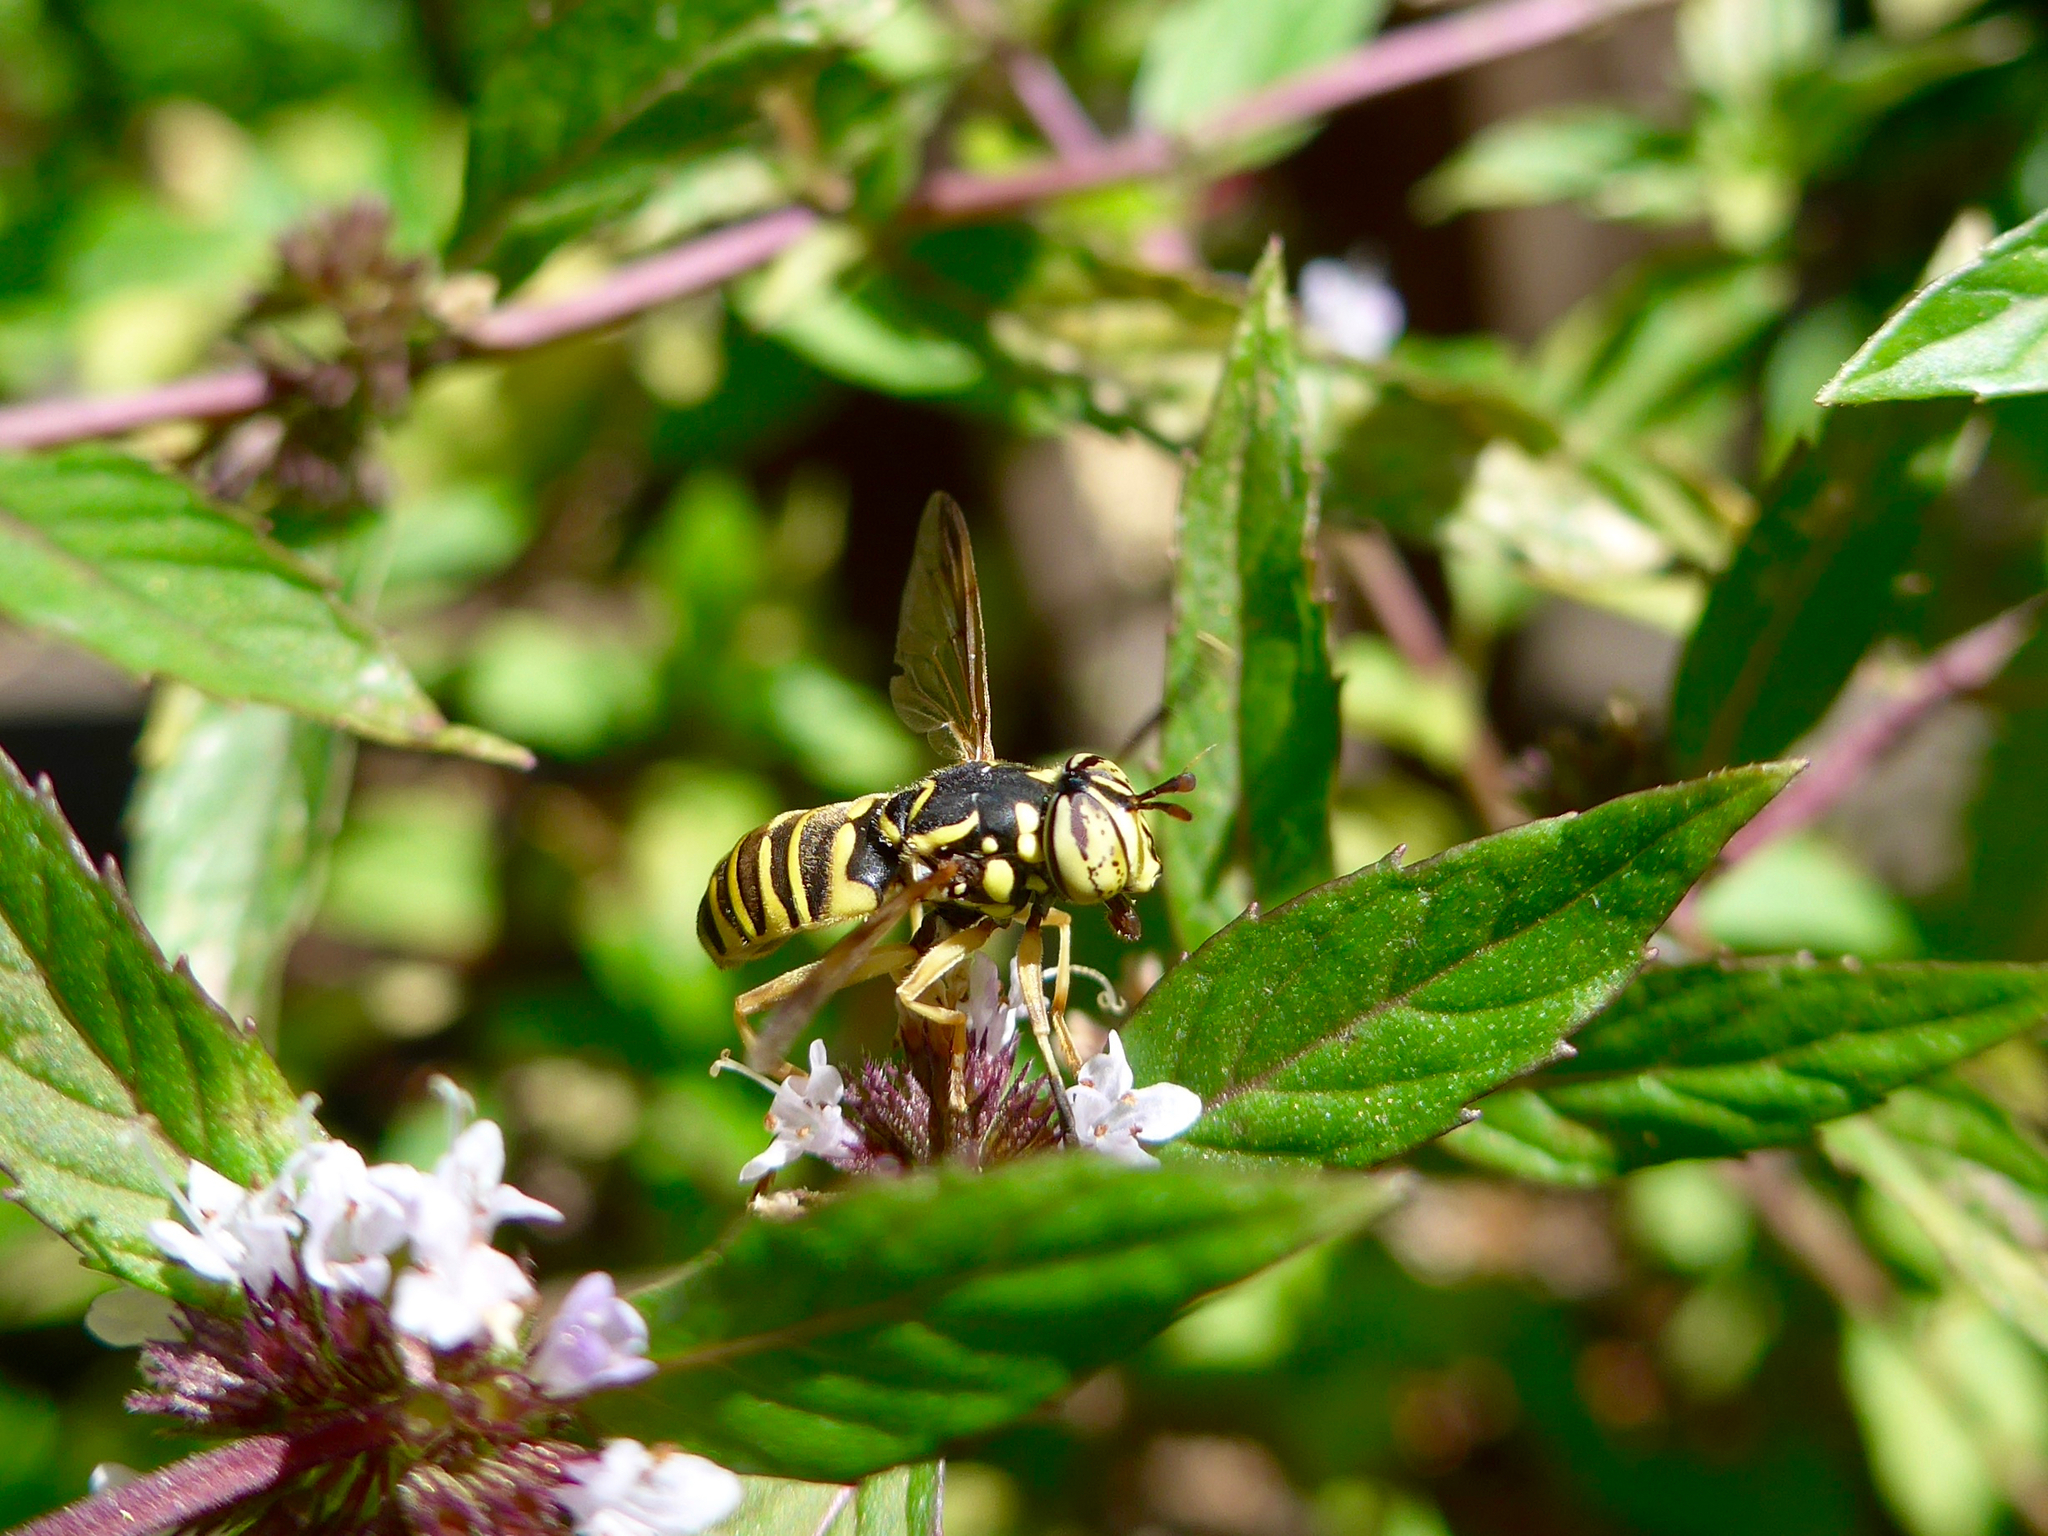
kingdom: Animalia
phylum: Arthropoda
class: Insecta
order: Diptera
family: Syrphidae
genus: Spilomyia
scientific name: Spilomyia citima
